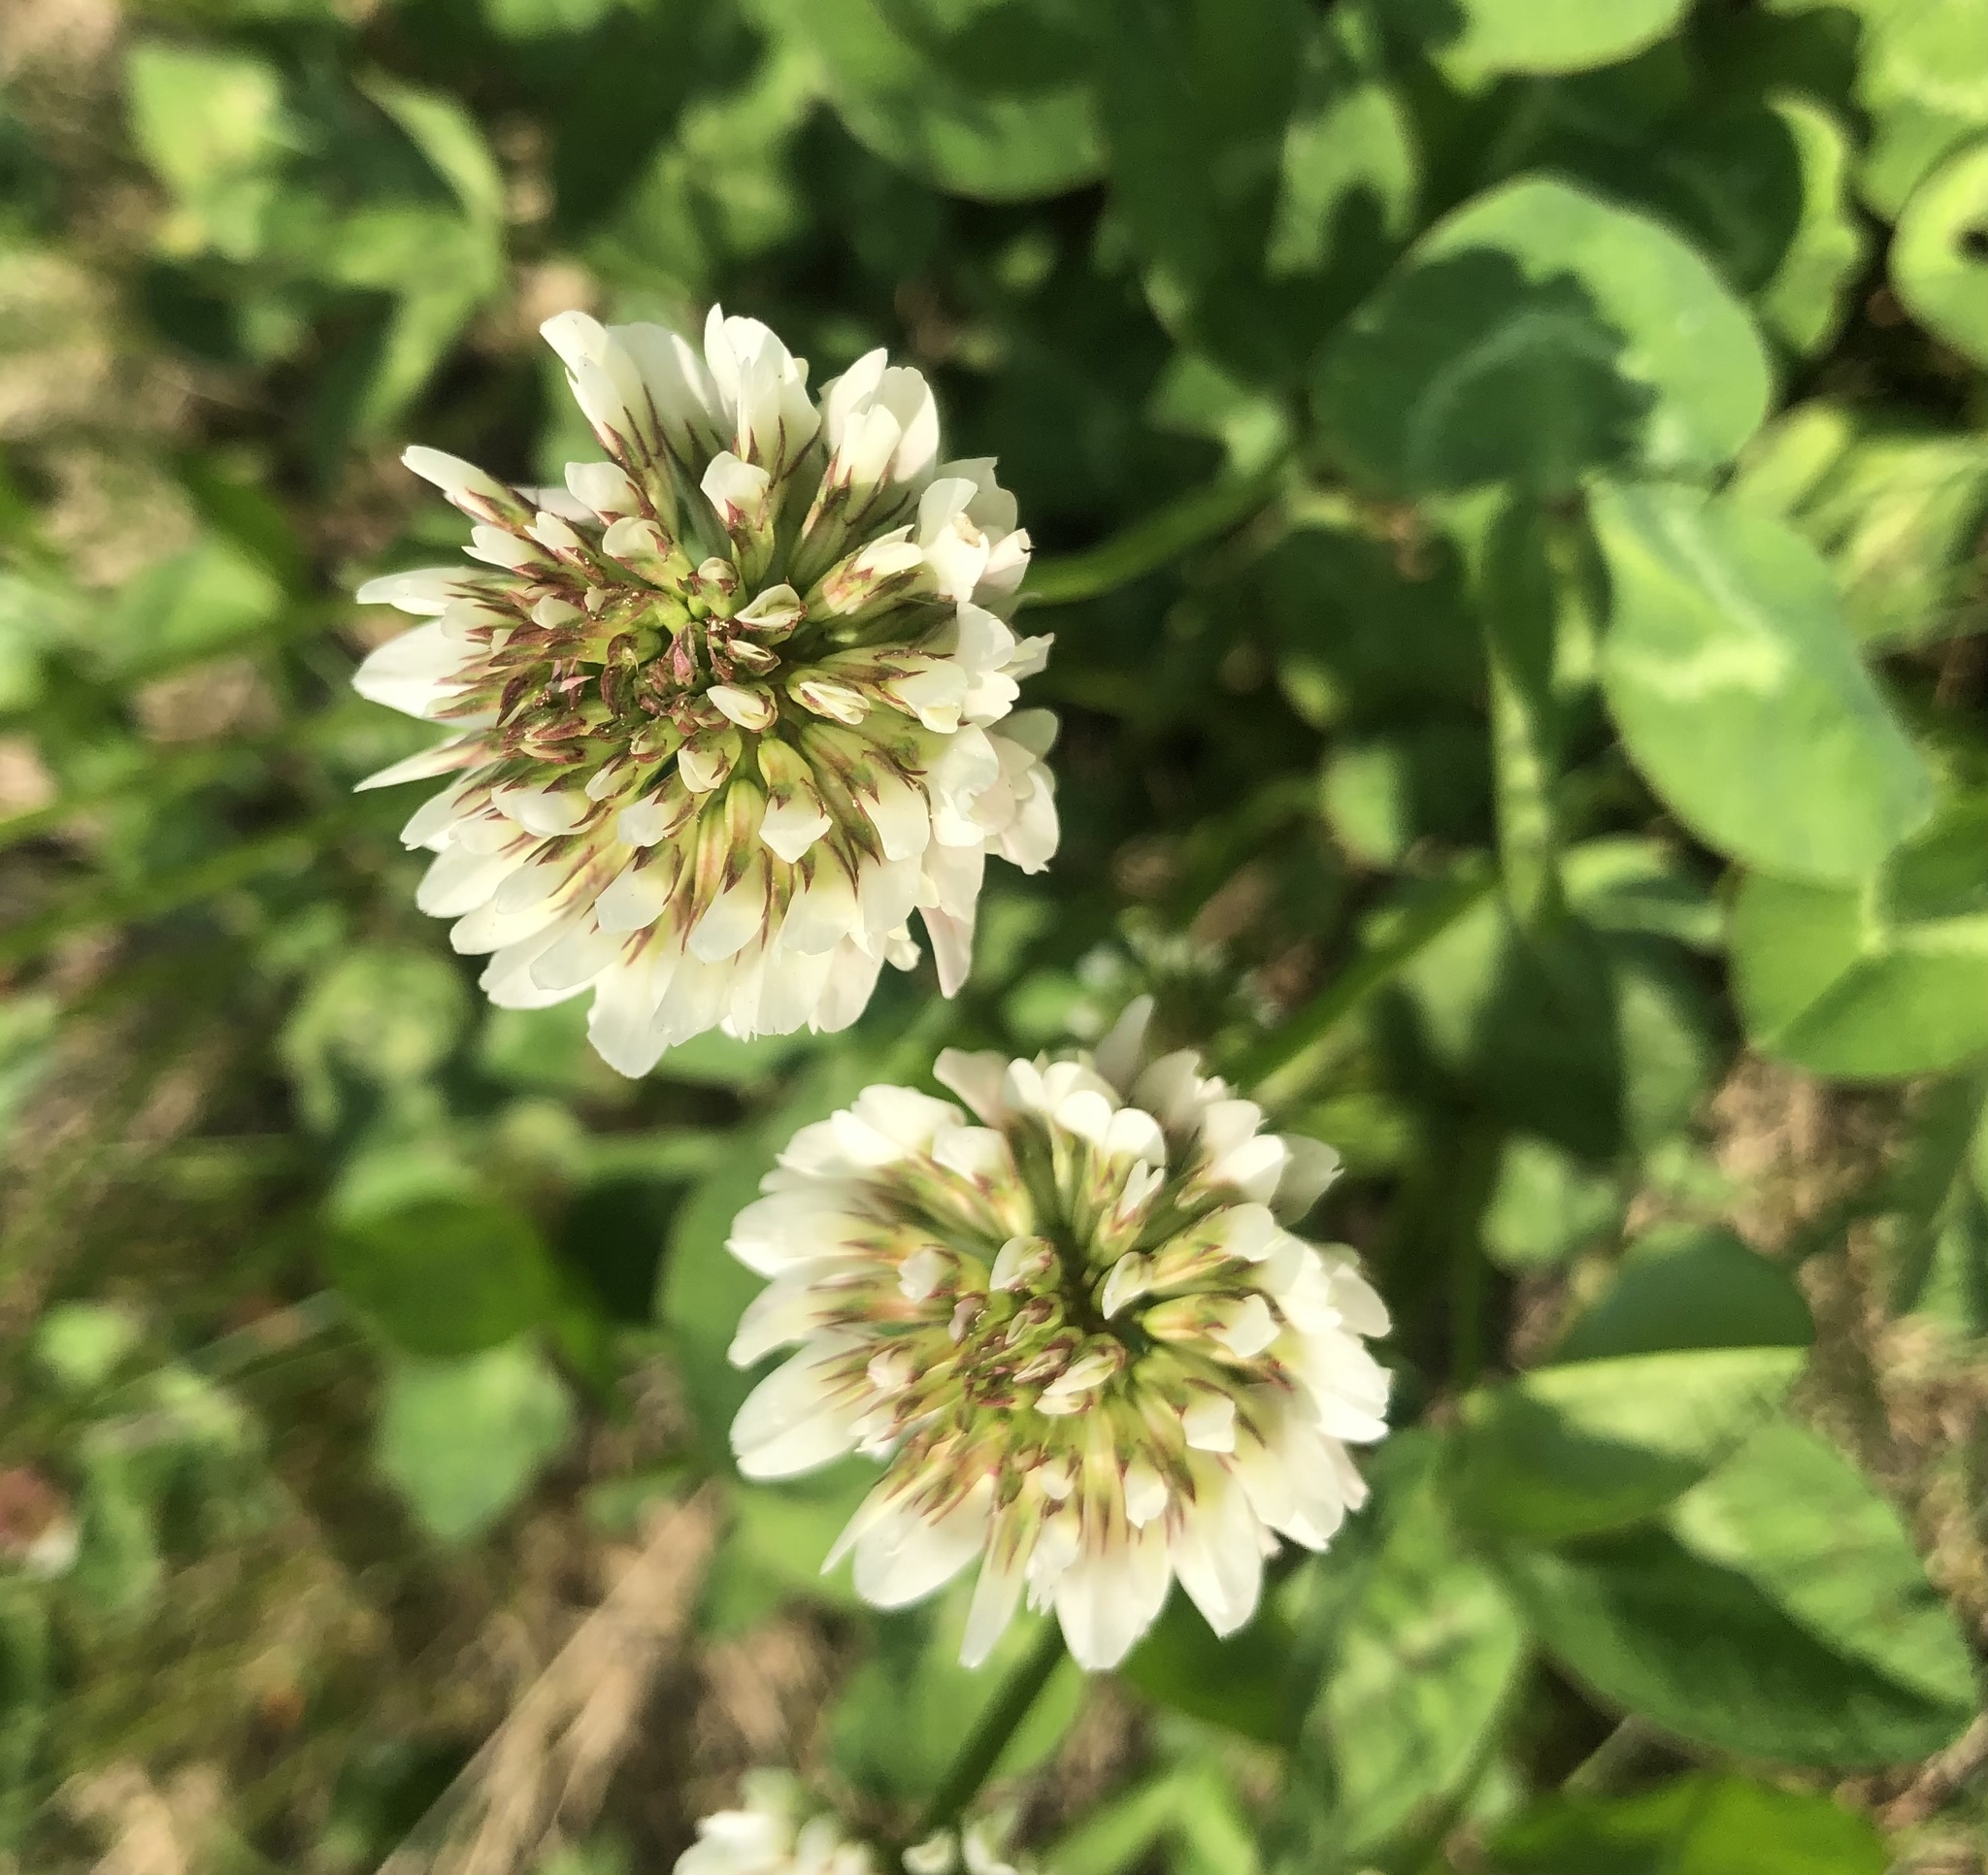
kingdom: Plantae
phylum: Tracheophyta
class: Magnoliopsida
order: Fabales
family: Fabaceae
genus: Trifolium
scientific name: Trifolium repens
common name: White clover
